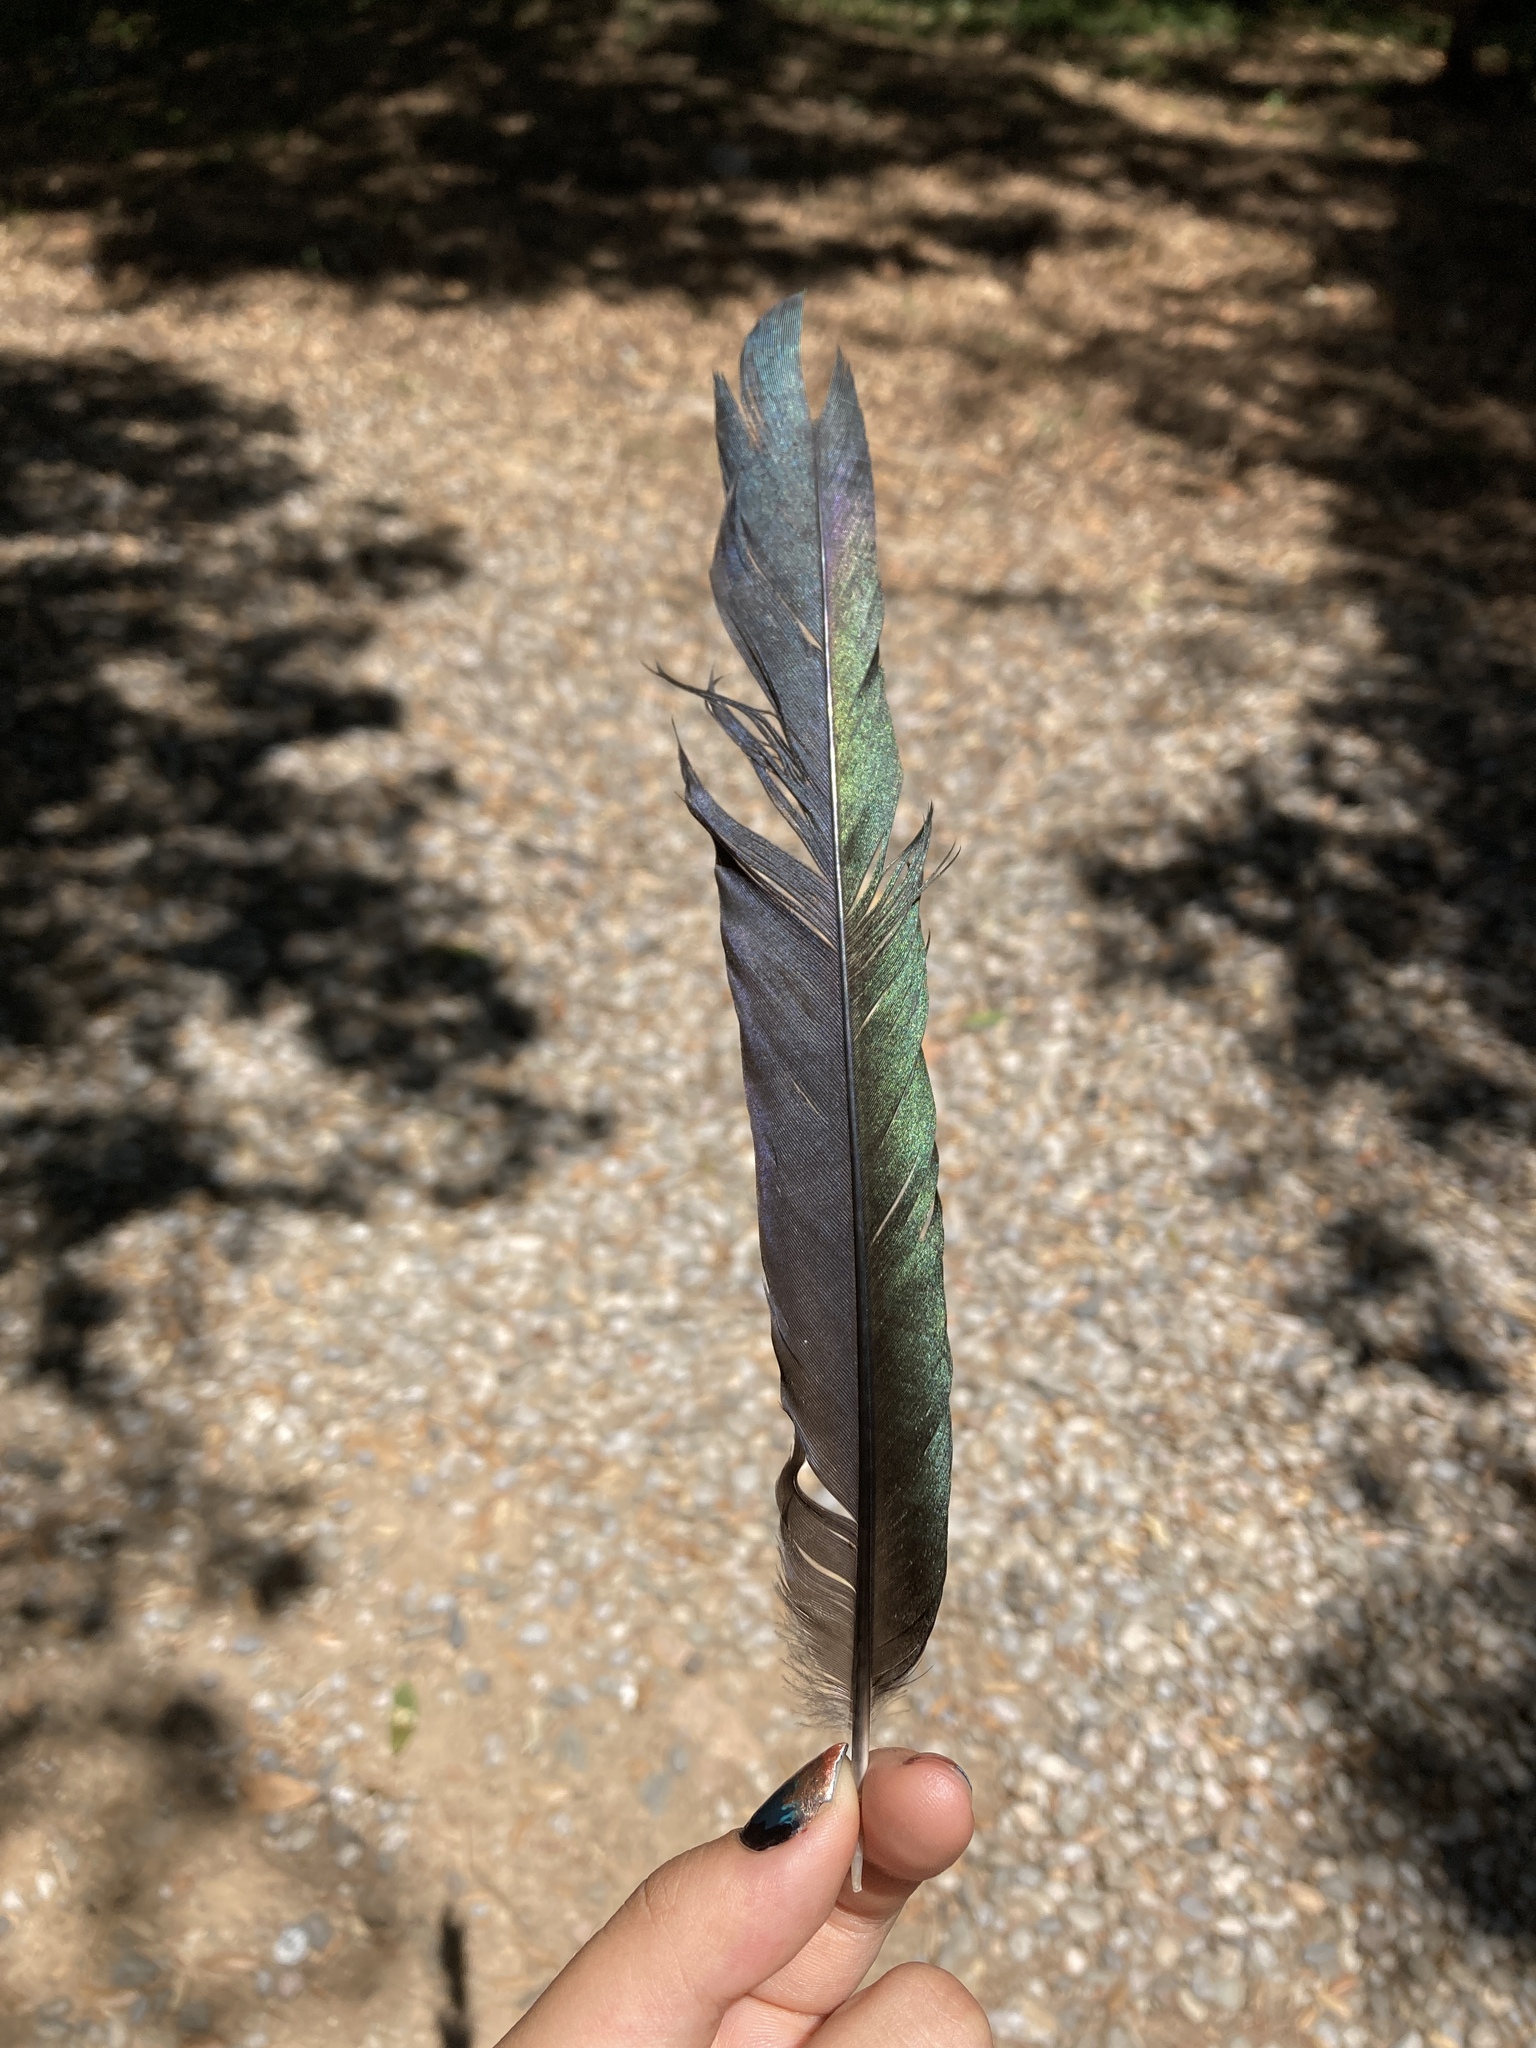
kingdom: Animalia
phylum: Chordata
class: Aves
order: Passeriformes
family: Corvidae
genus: Pica
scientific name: Pica pica
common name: Eurasian magpie
